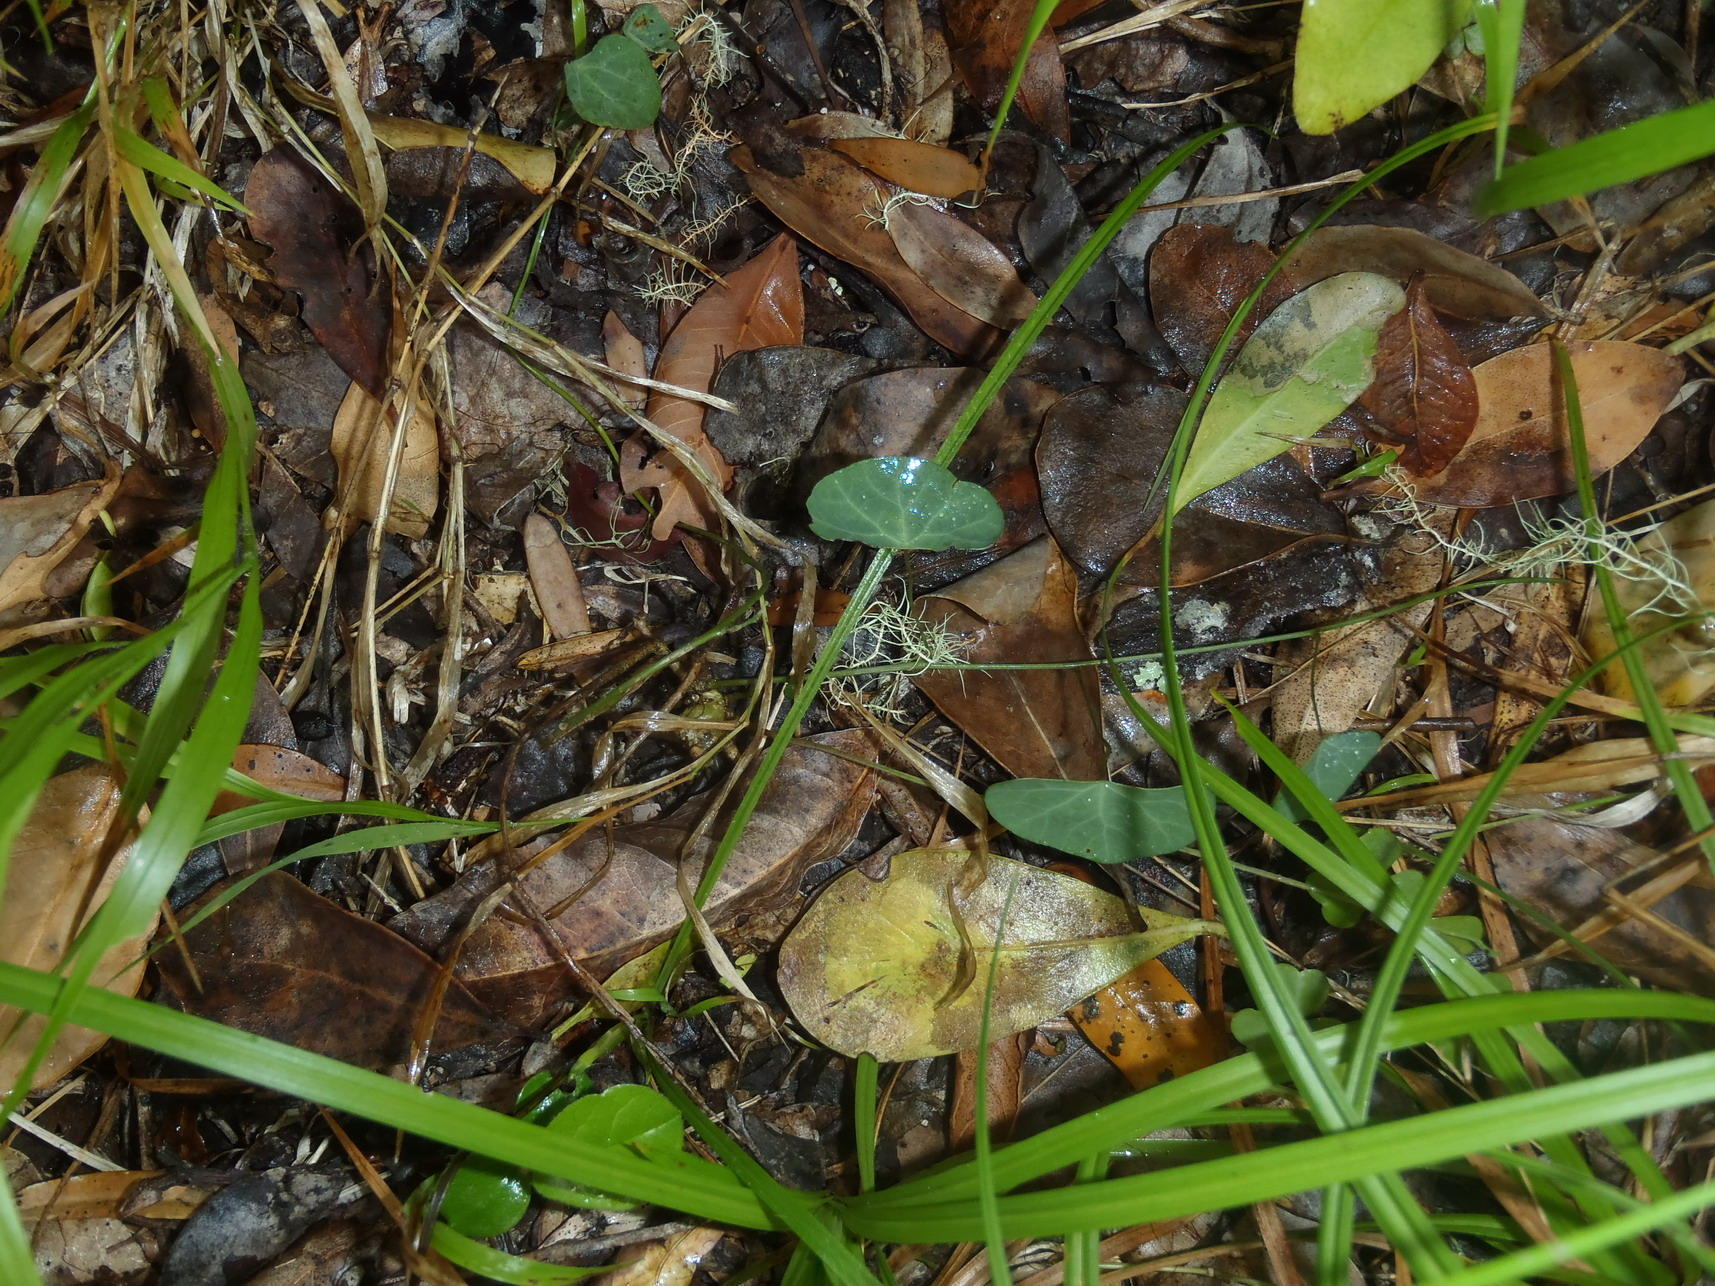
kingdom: Plantae
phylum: Tracheophyta
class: Magnoliopsida
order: Ranunculales
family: Menispermaceae
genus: Cissampelos
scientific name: Cissampelos torulosa
